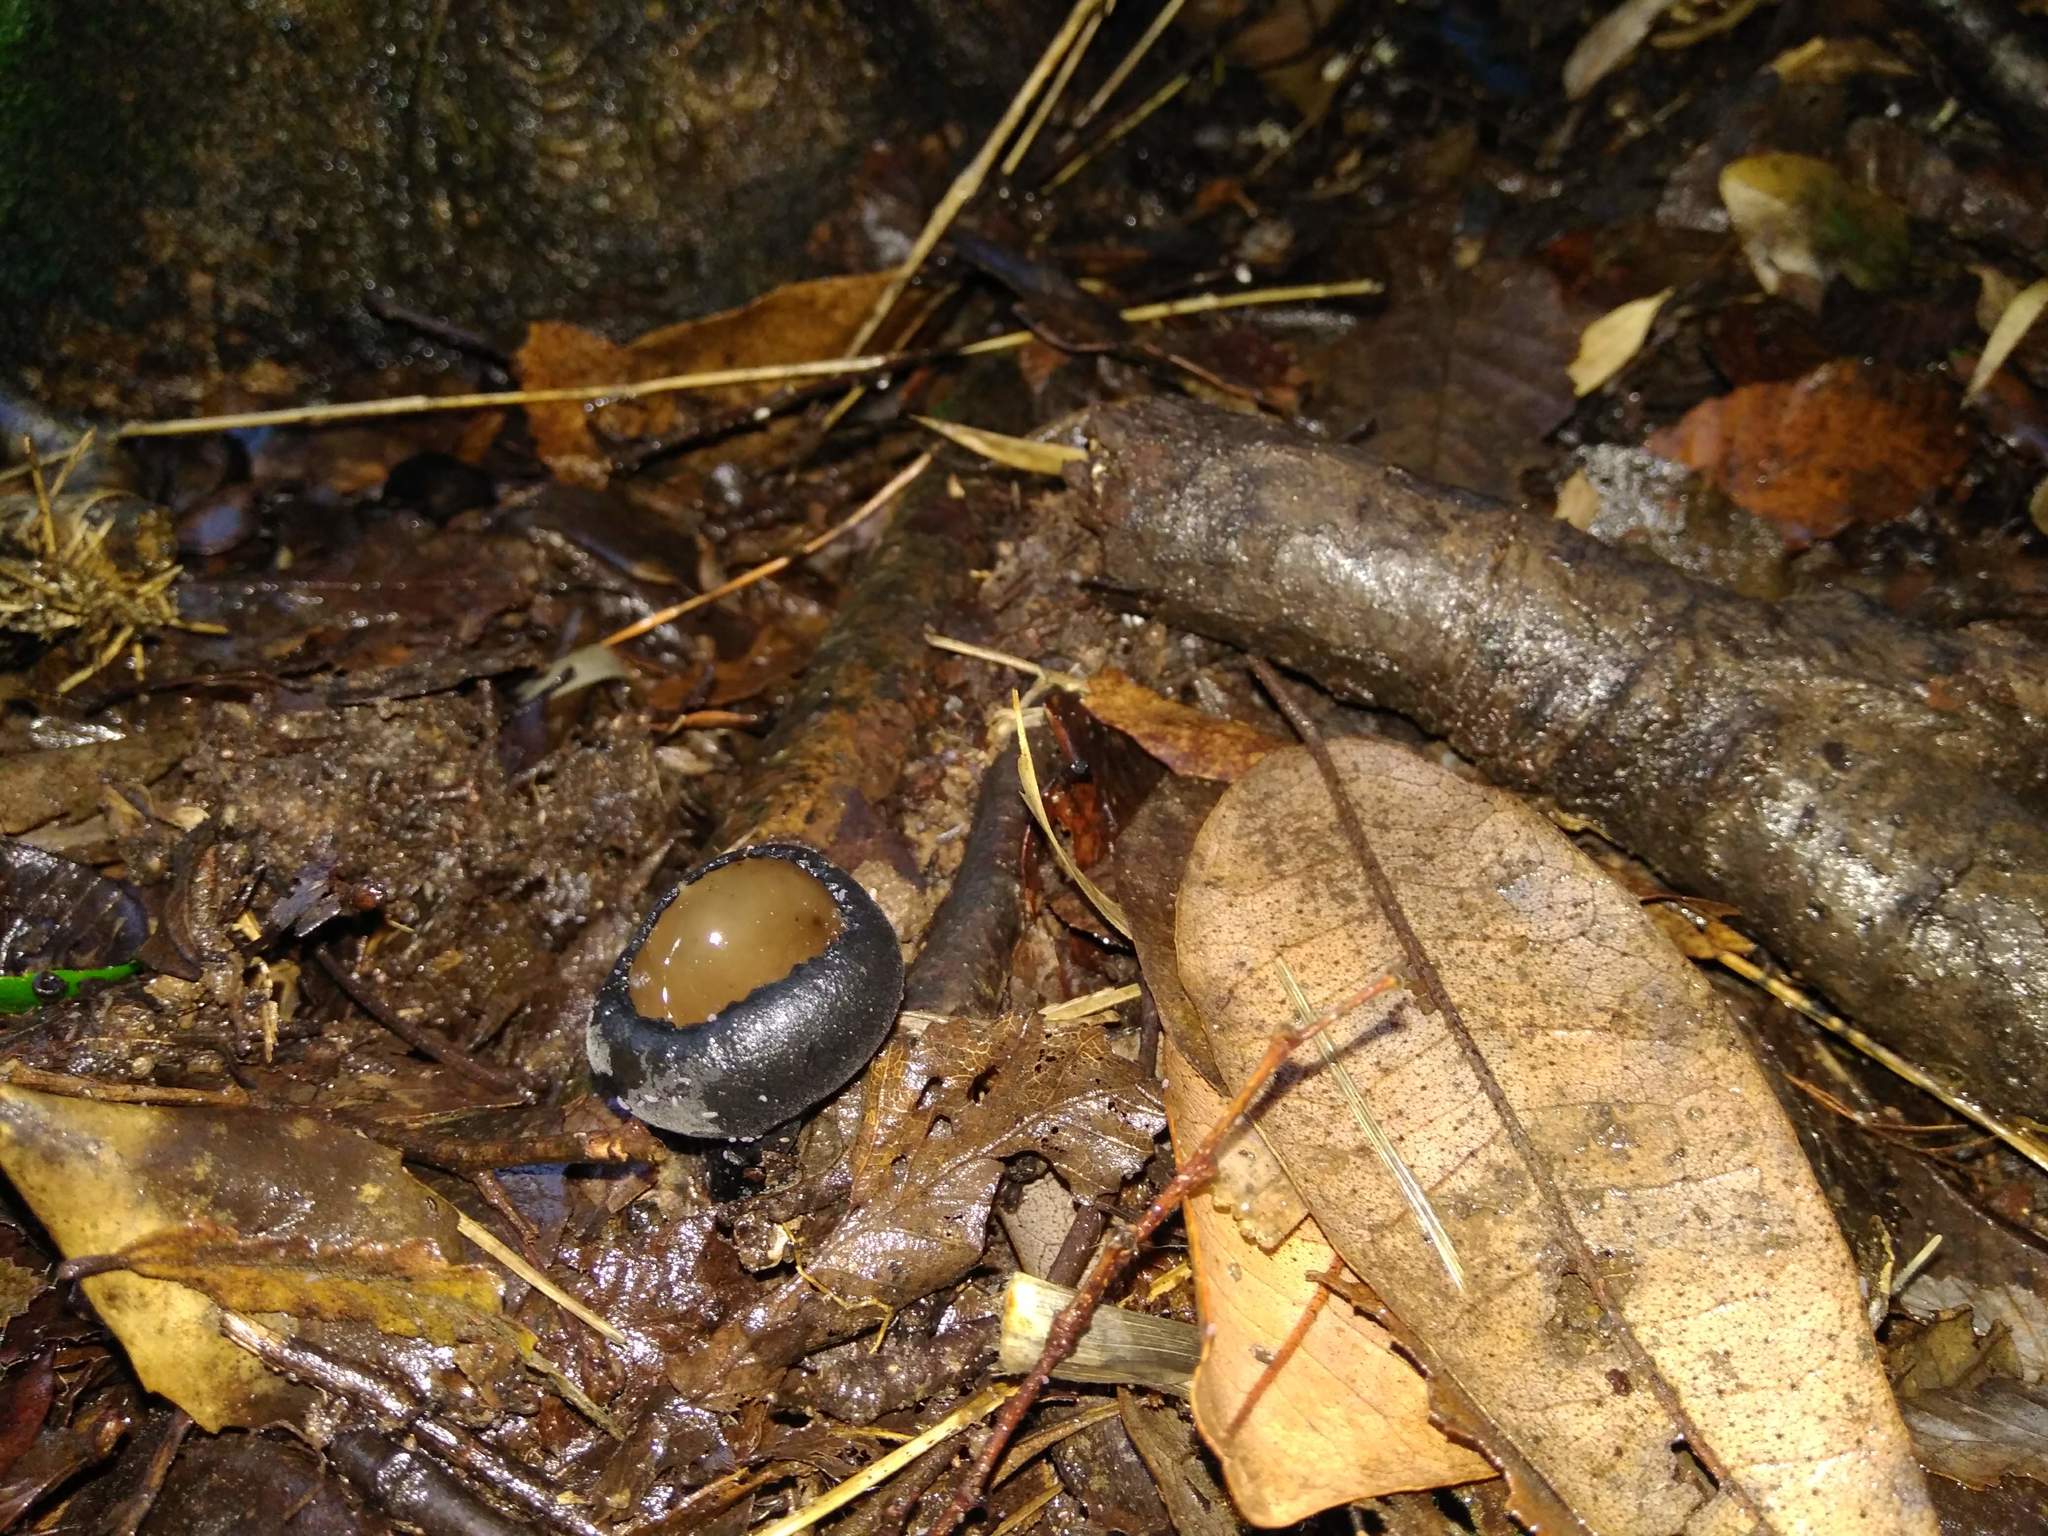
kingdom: Fungi
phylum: Ascomycota
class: Pezizomycetes
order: Pezizales
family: Sarcosomataceae
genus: Plectania
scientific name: Plectania chilensis
